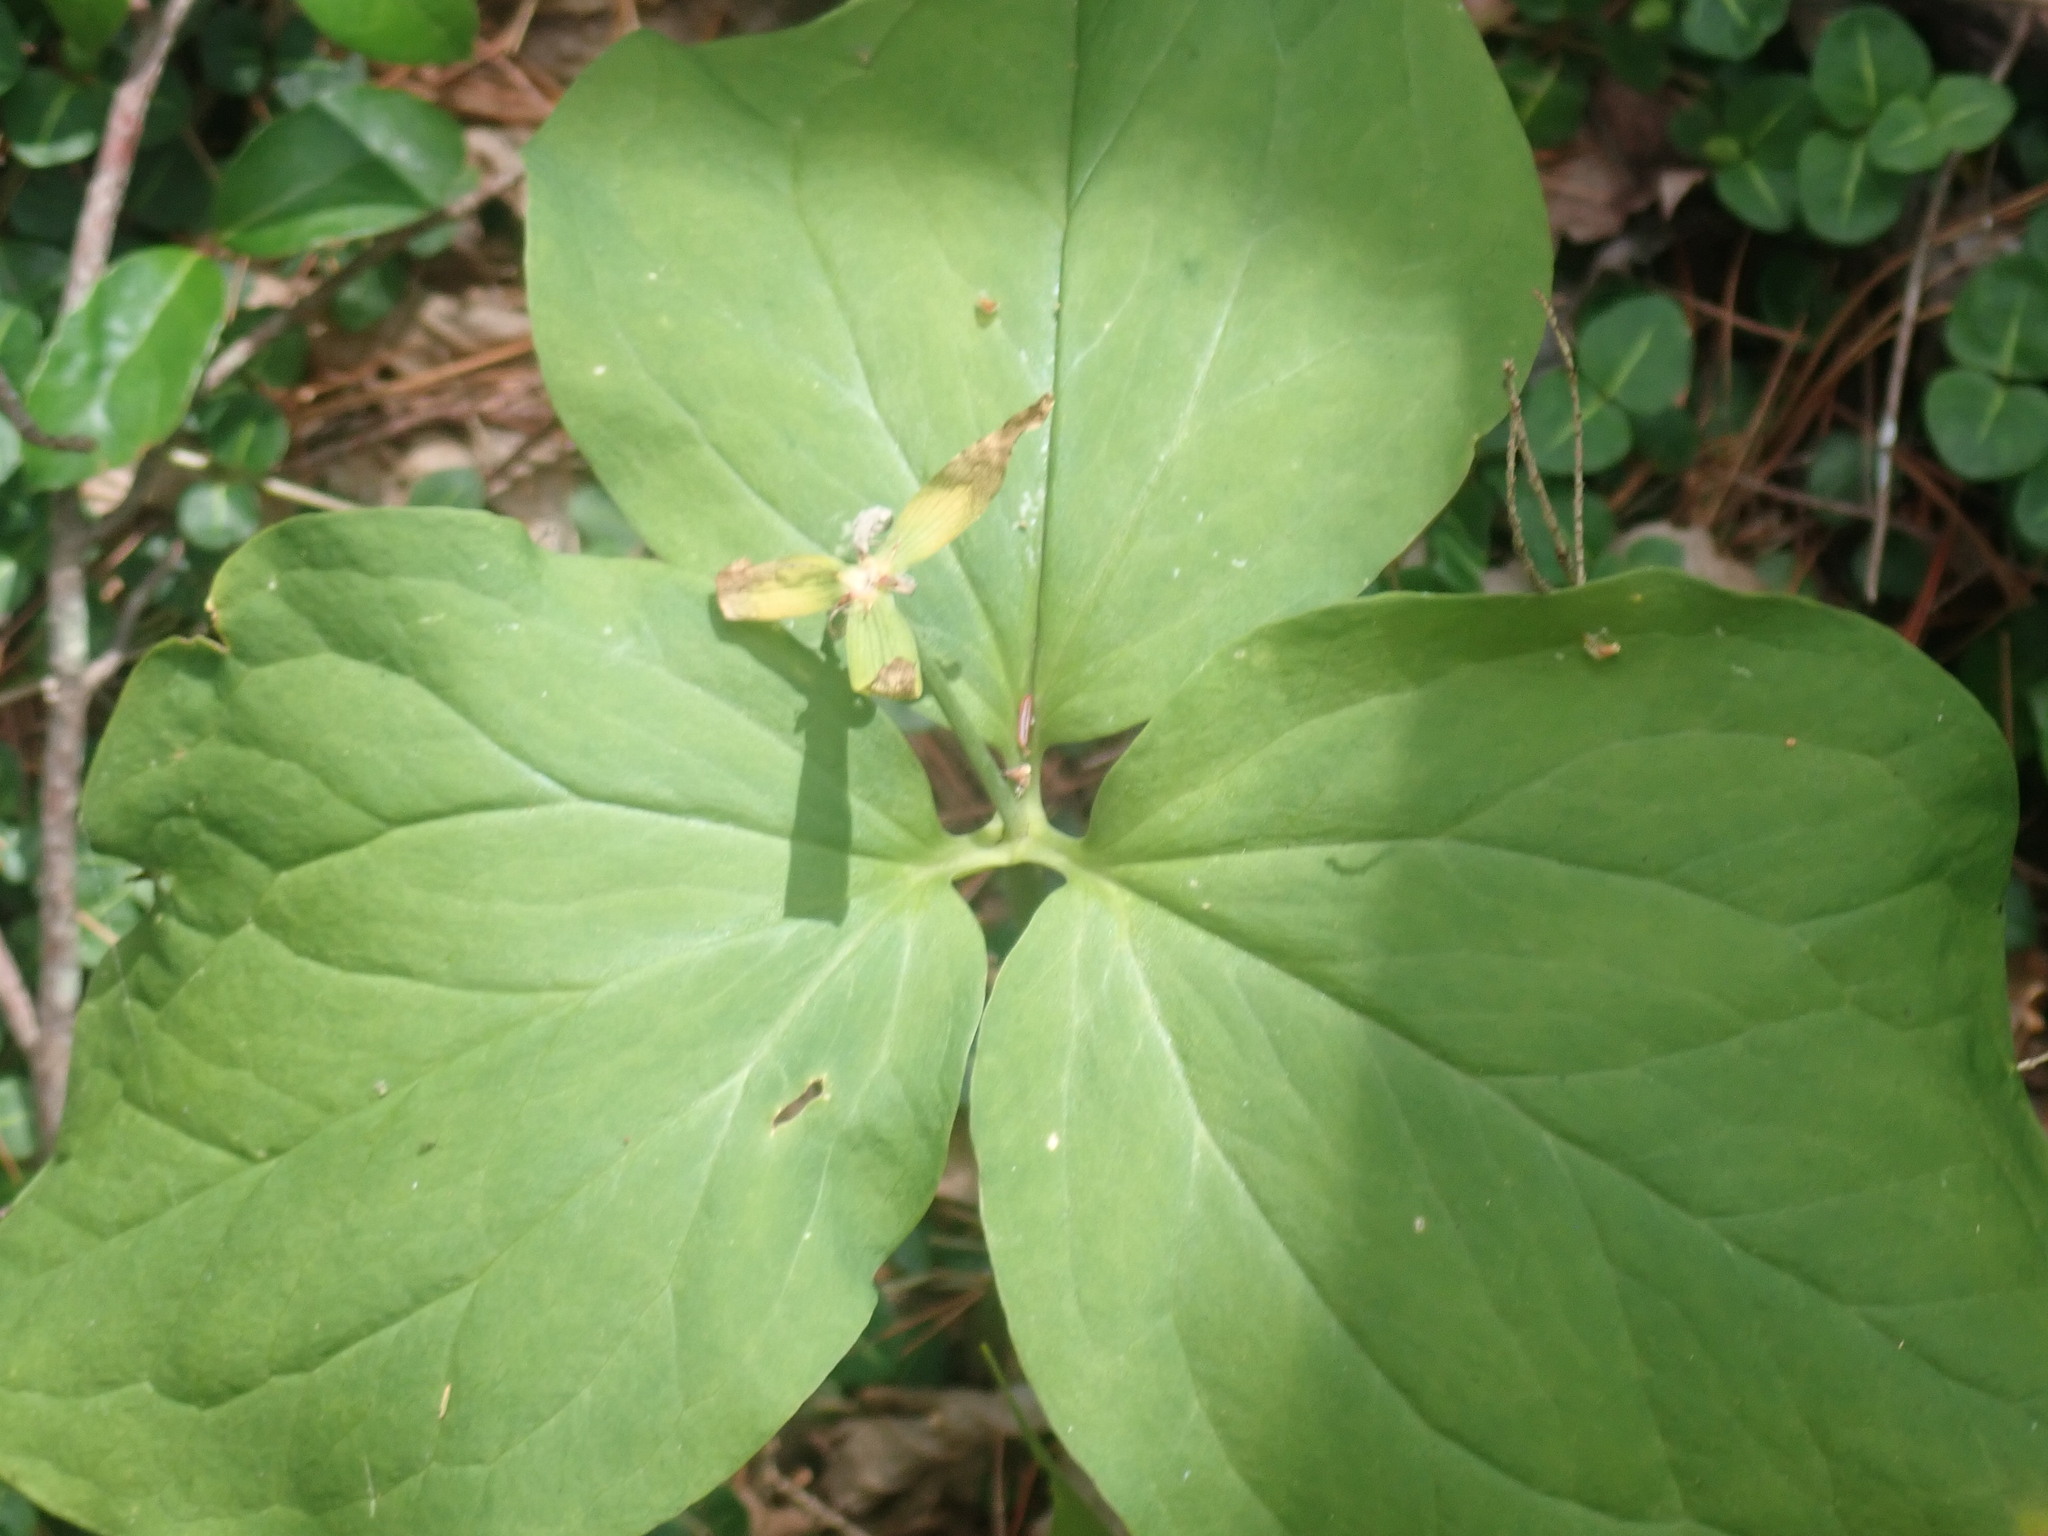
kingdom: Plantae
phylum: Tracheophyta
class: Liliopsida
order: Liliales
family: Melanthiaceae
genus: Trillium
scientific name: Trillium undulatum
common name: Paint trillium
